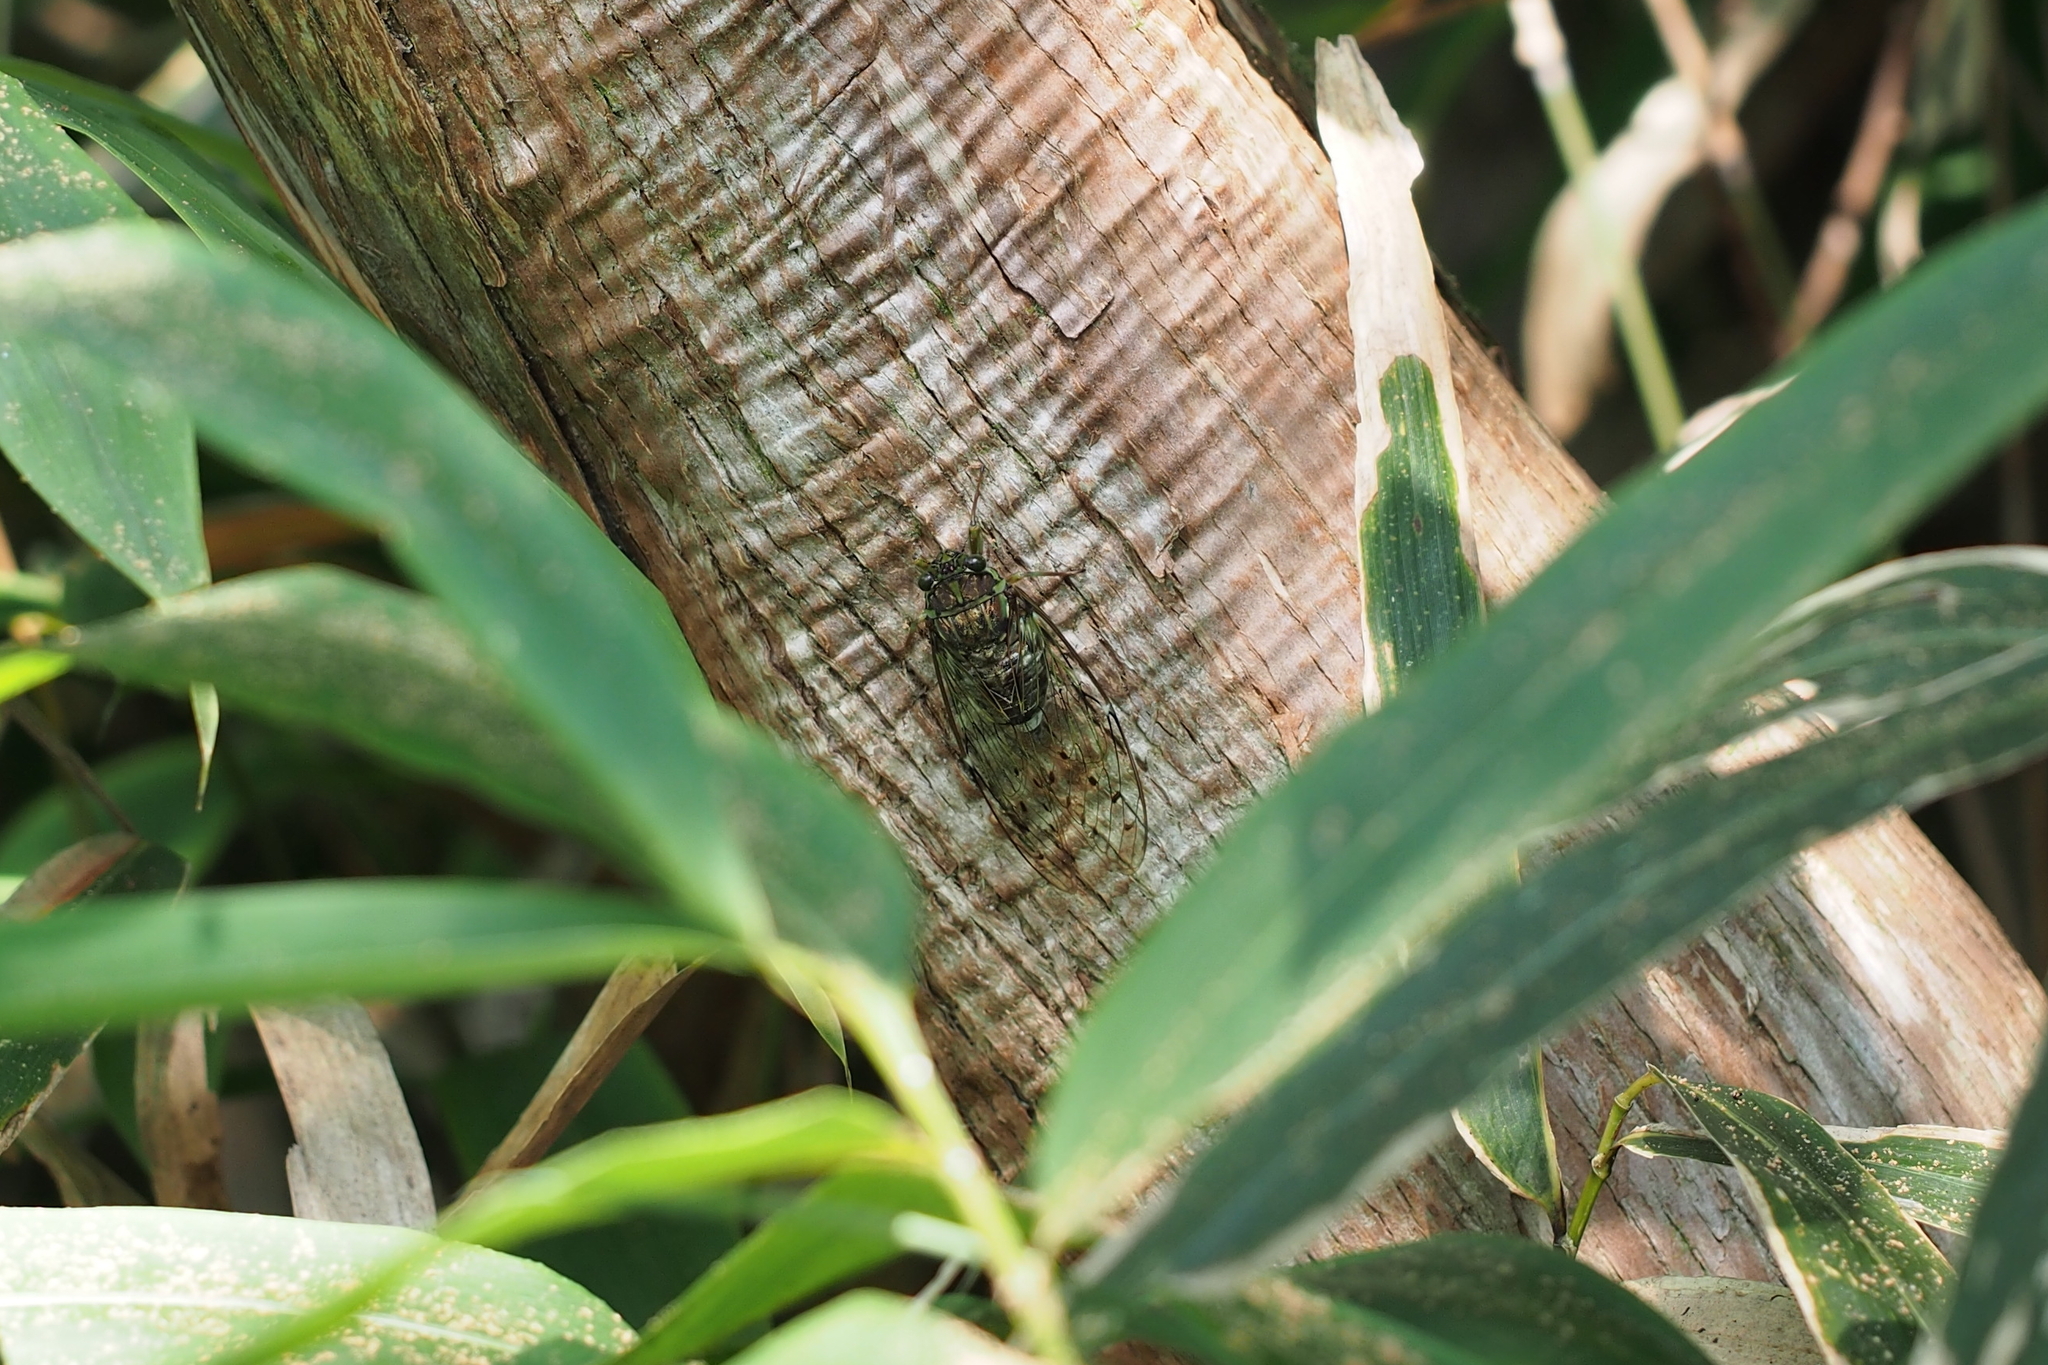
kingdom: Animalia
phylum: Arthropoda
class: Insecta
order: Hemiptera
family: Cicadidae
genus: Tanna
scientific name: Tanna japonensis
